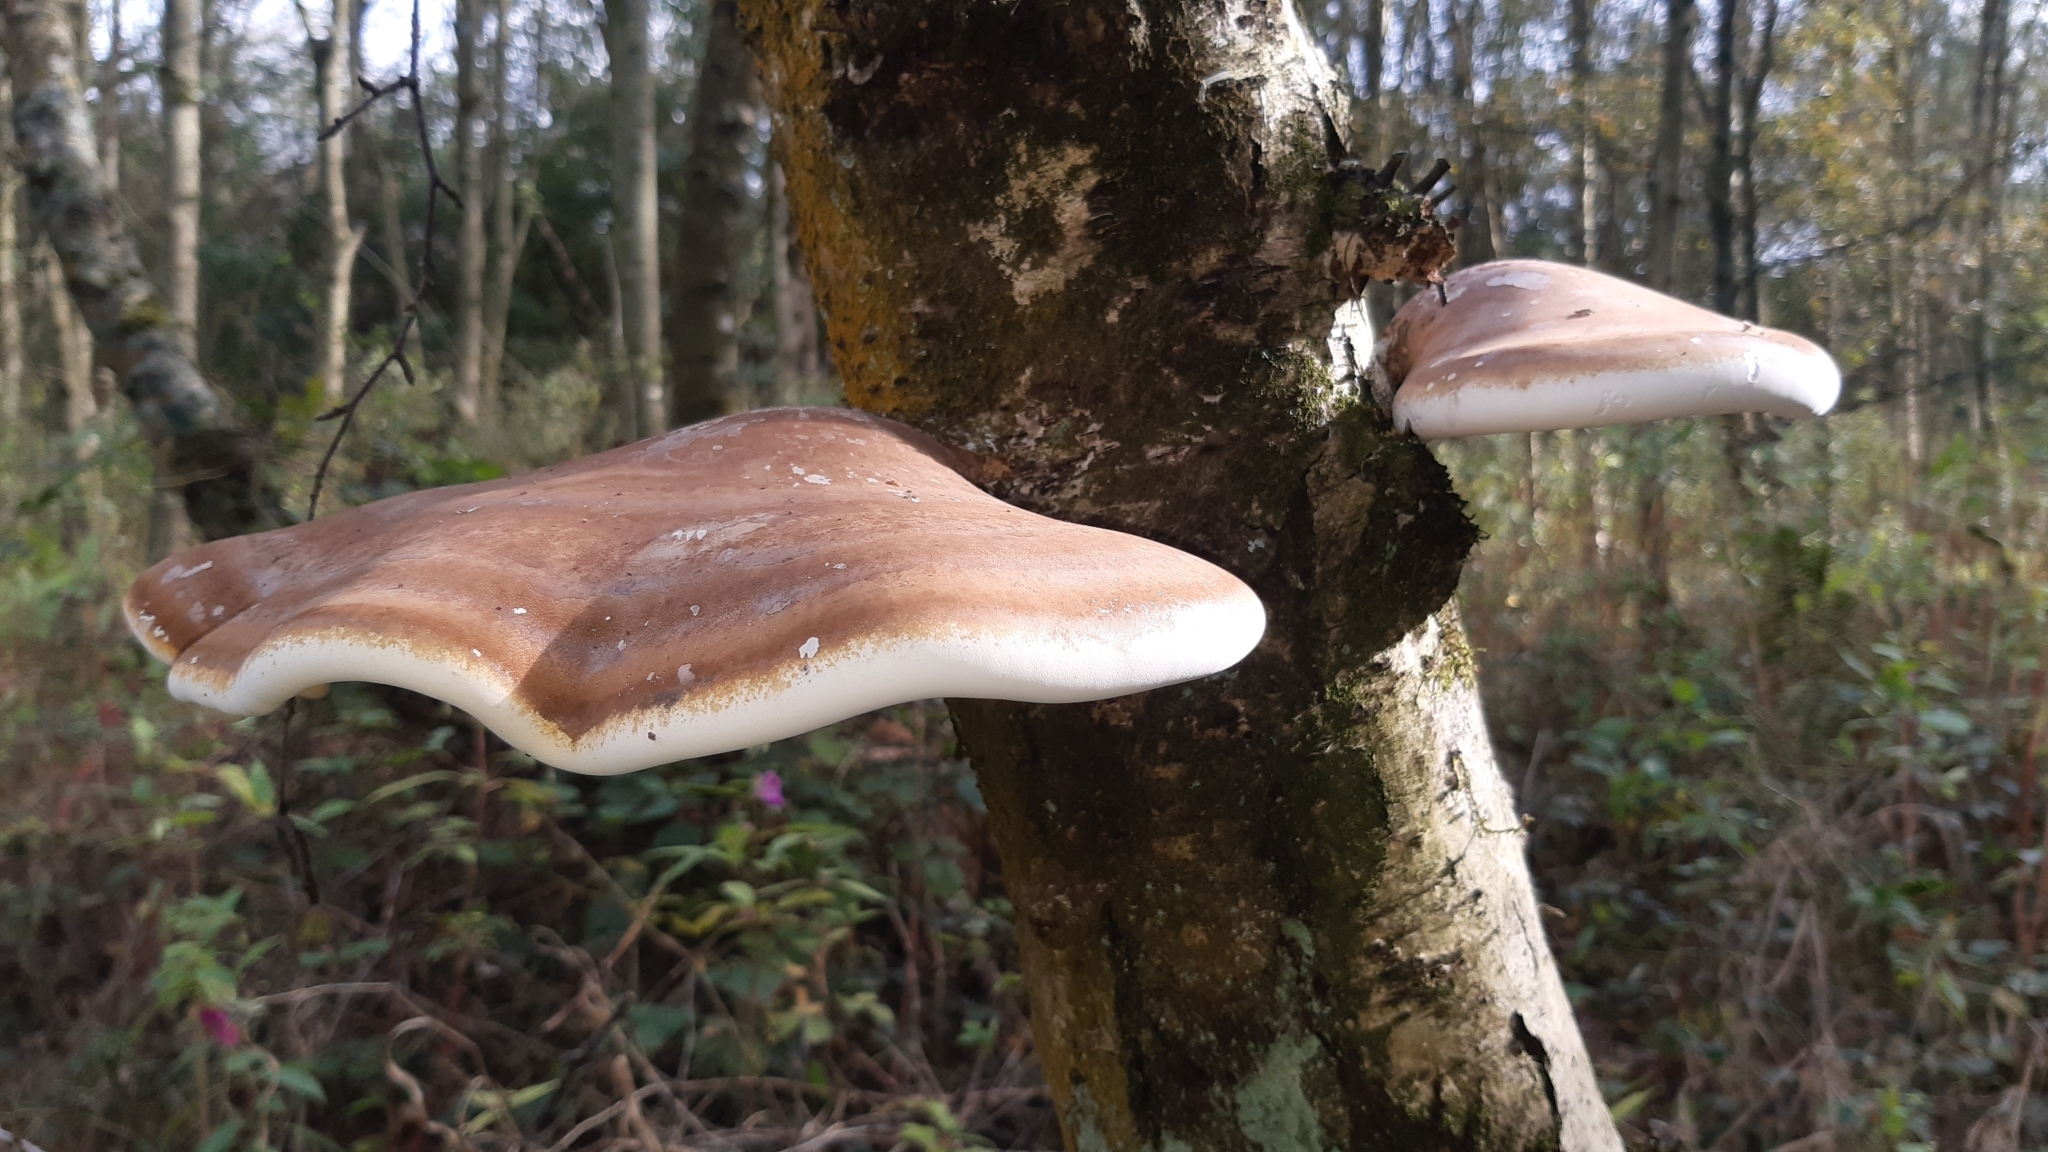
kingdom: Fungi
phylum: Basidiomycota
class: Agaricomycetes
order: Polyporales
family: Fomitopsidaceae
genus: Fomitopsis
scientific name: Fomitopsis betulina
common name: Birch polypore
